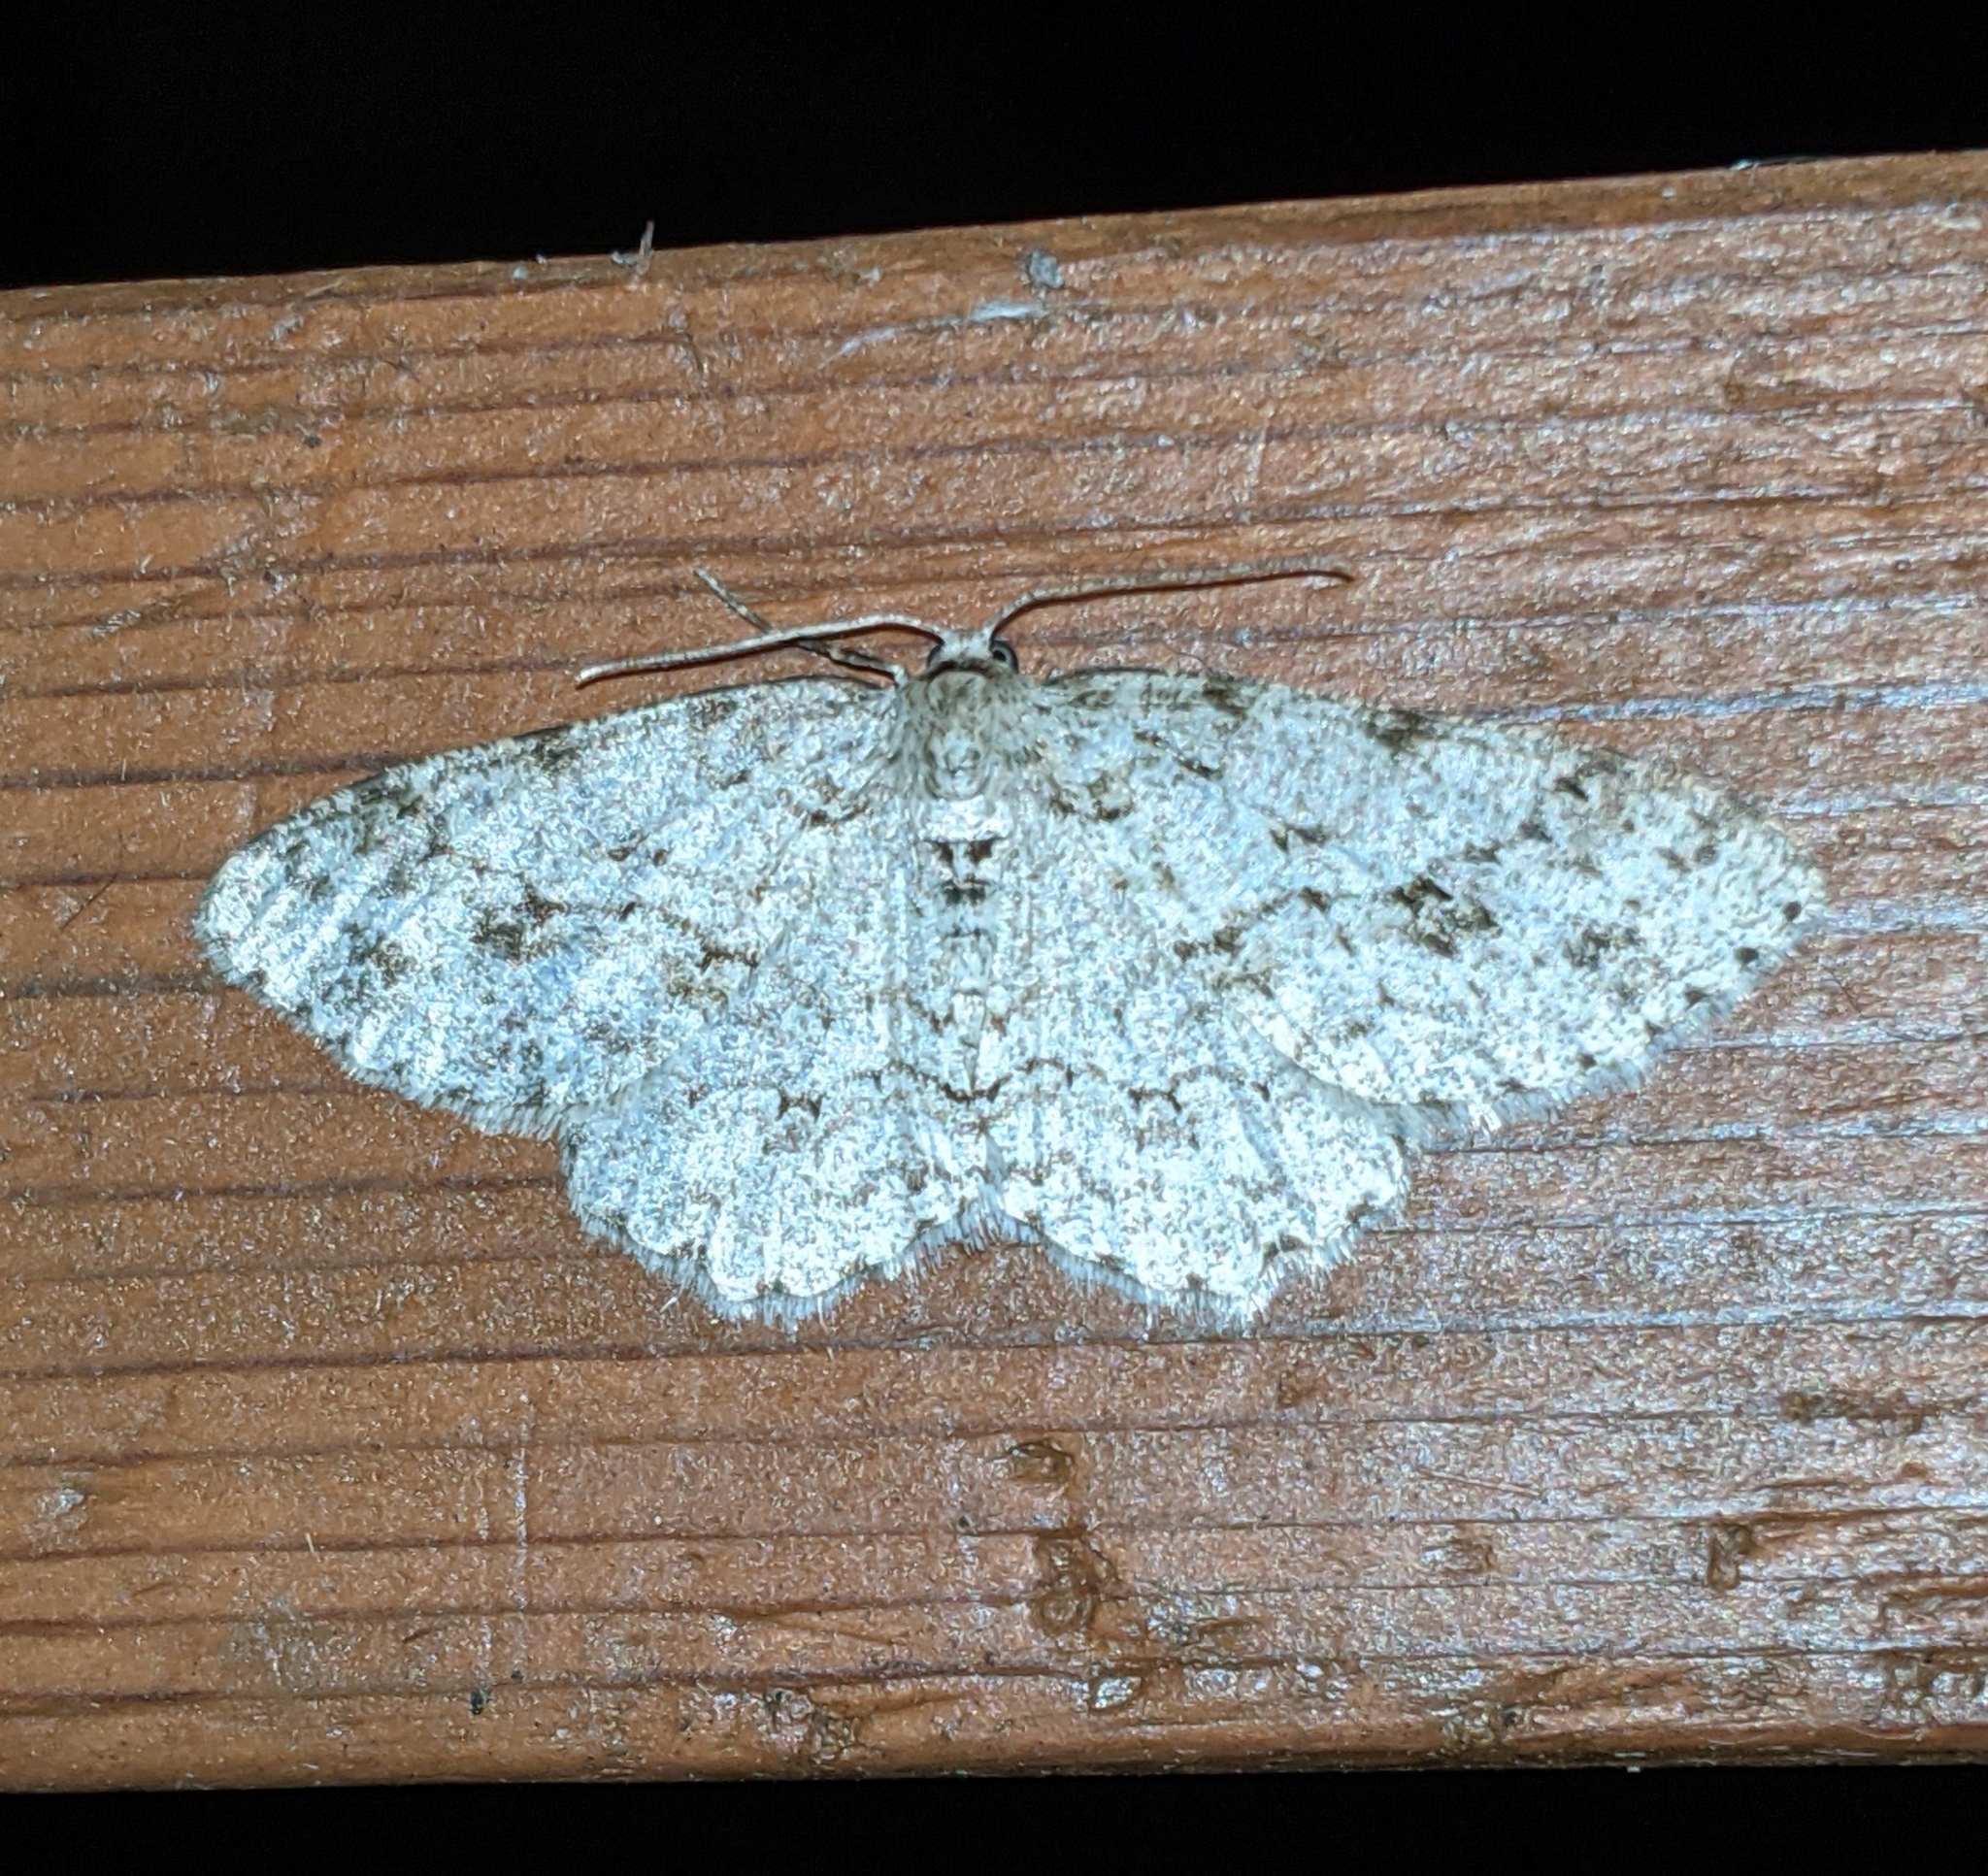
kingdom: Animalia
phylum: Arthropoda
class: Insecta
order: Lepidoptera
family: Geometridae
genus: Ectropis
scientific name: Ectropis crepuscularia
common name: Engrailed
